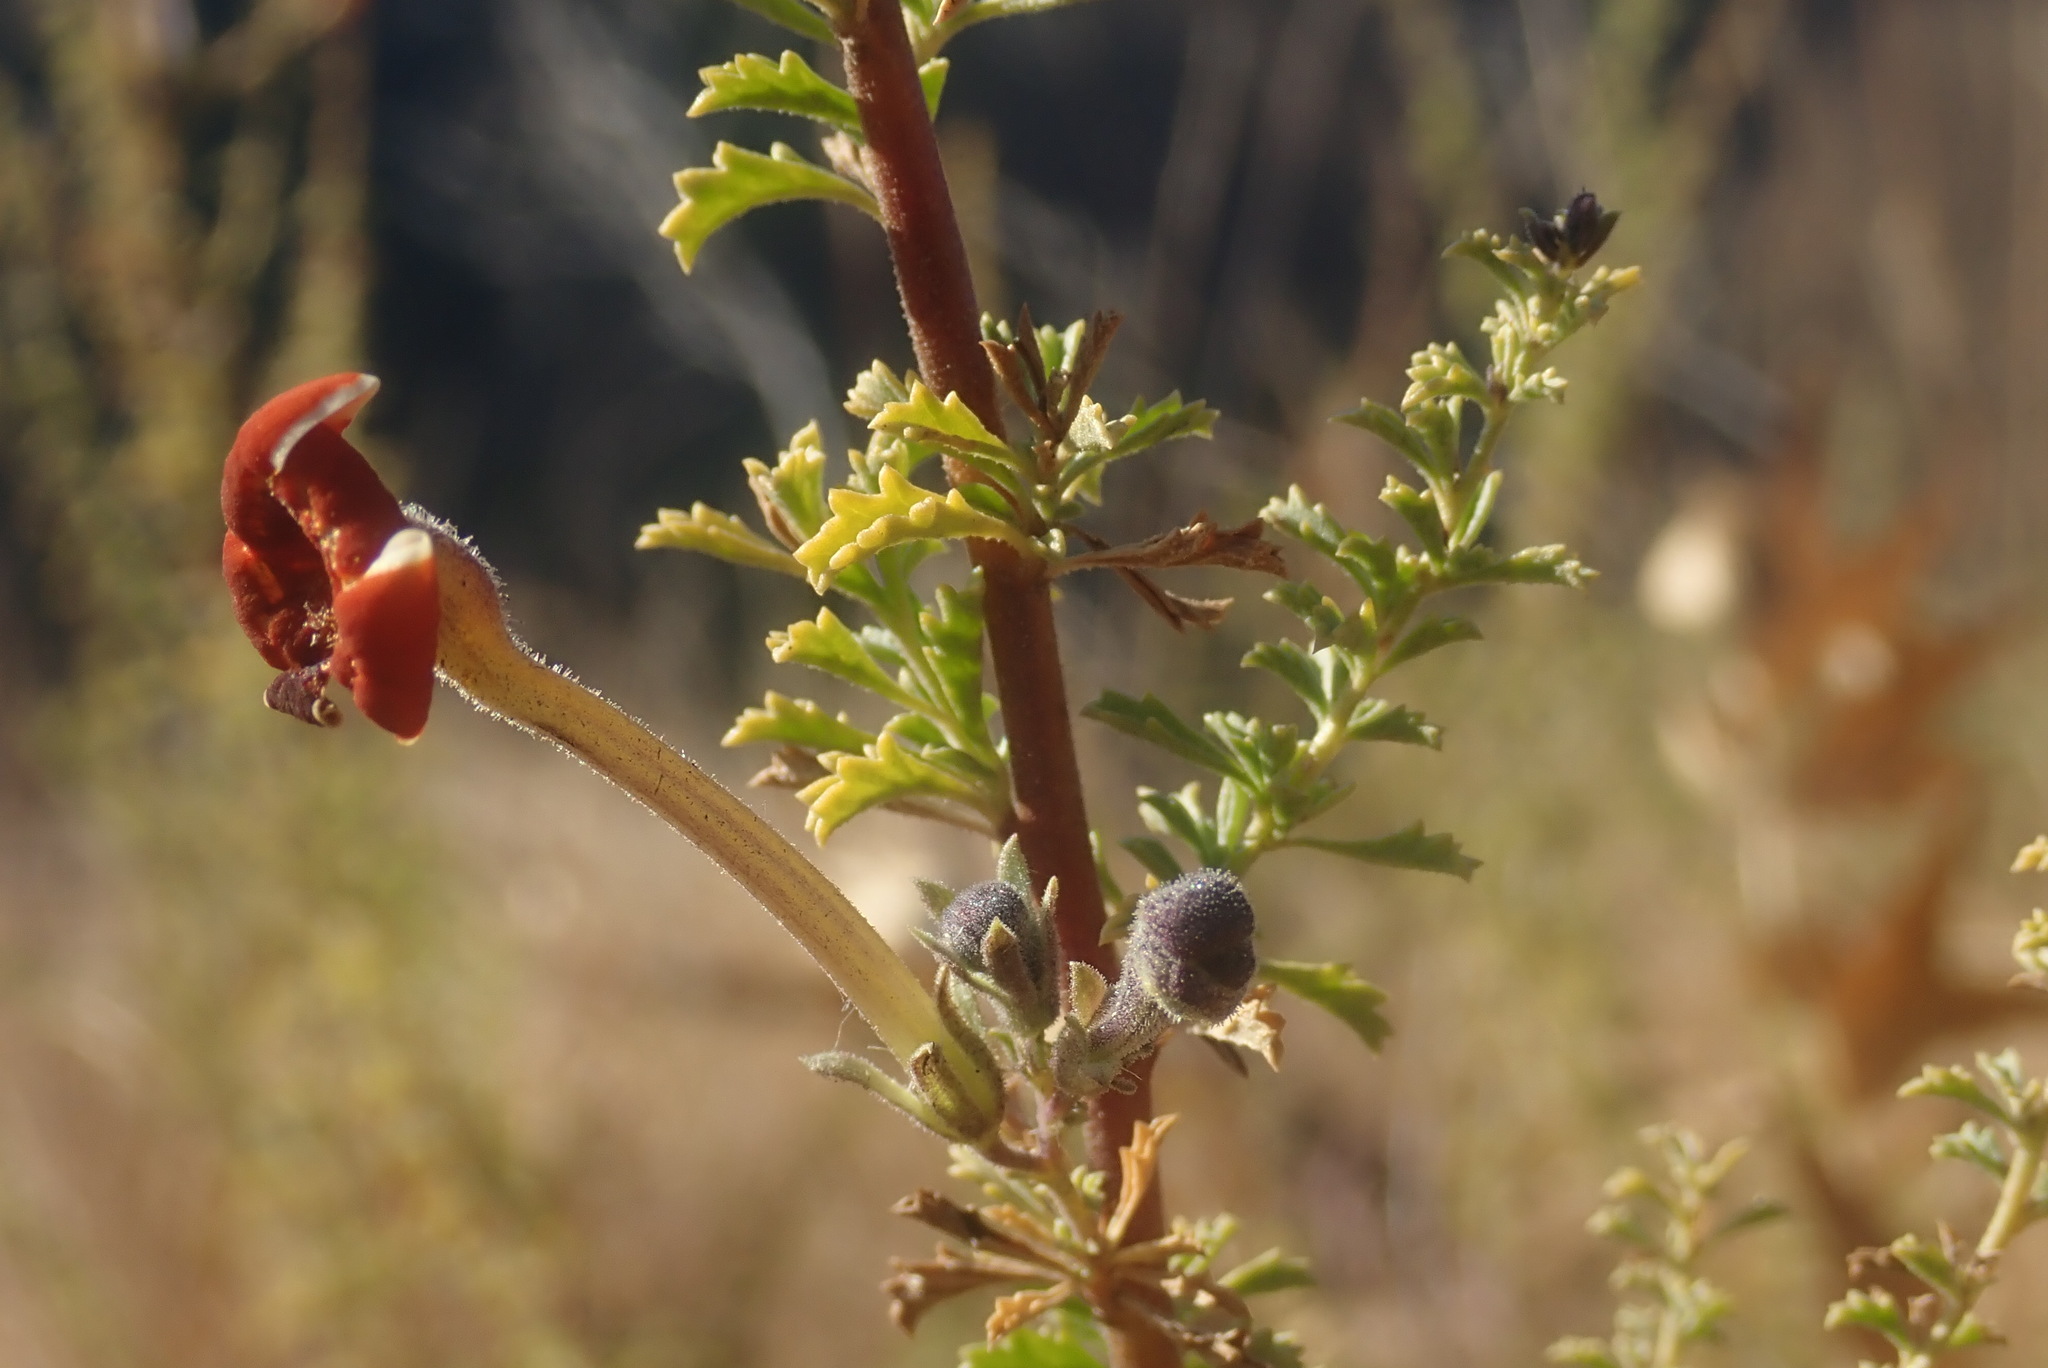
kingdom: Plantae
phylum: Tracheophyta
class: Magnoliopsida
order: Lamiales
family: Scrophulariaceae
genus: Jamesbrittenia
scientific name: Jamesbrittenia burkeana
